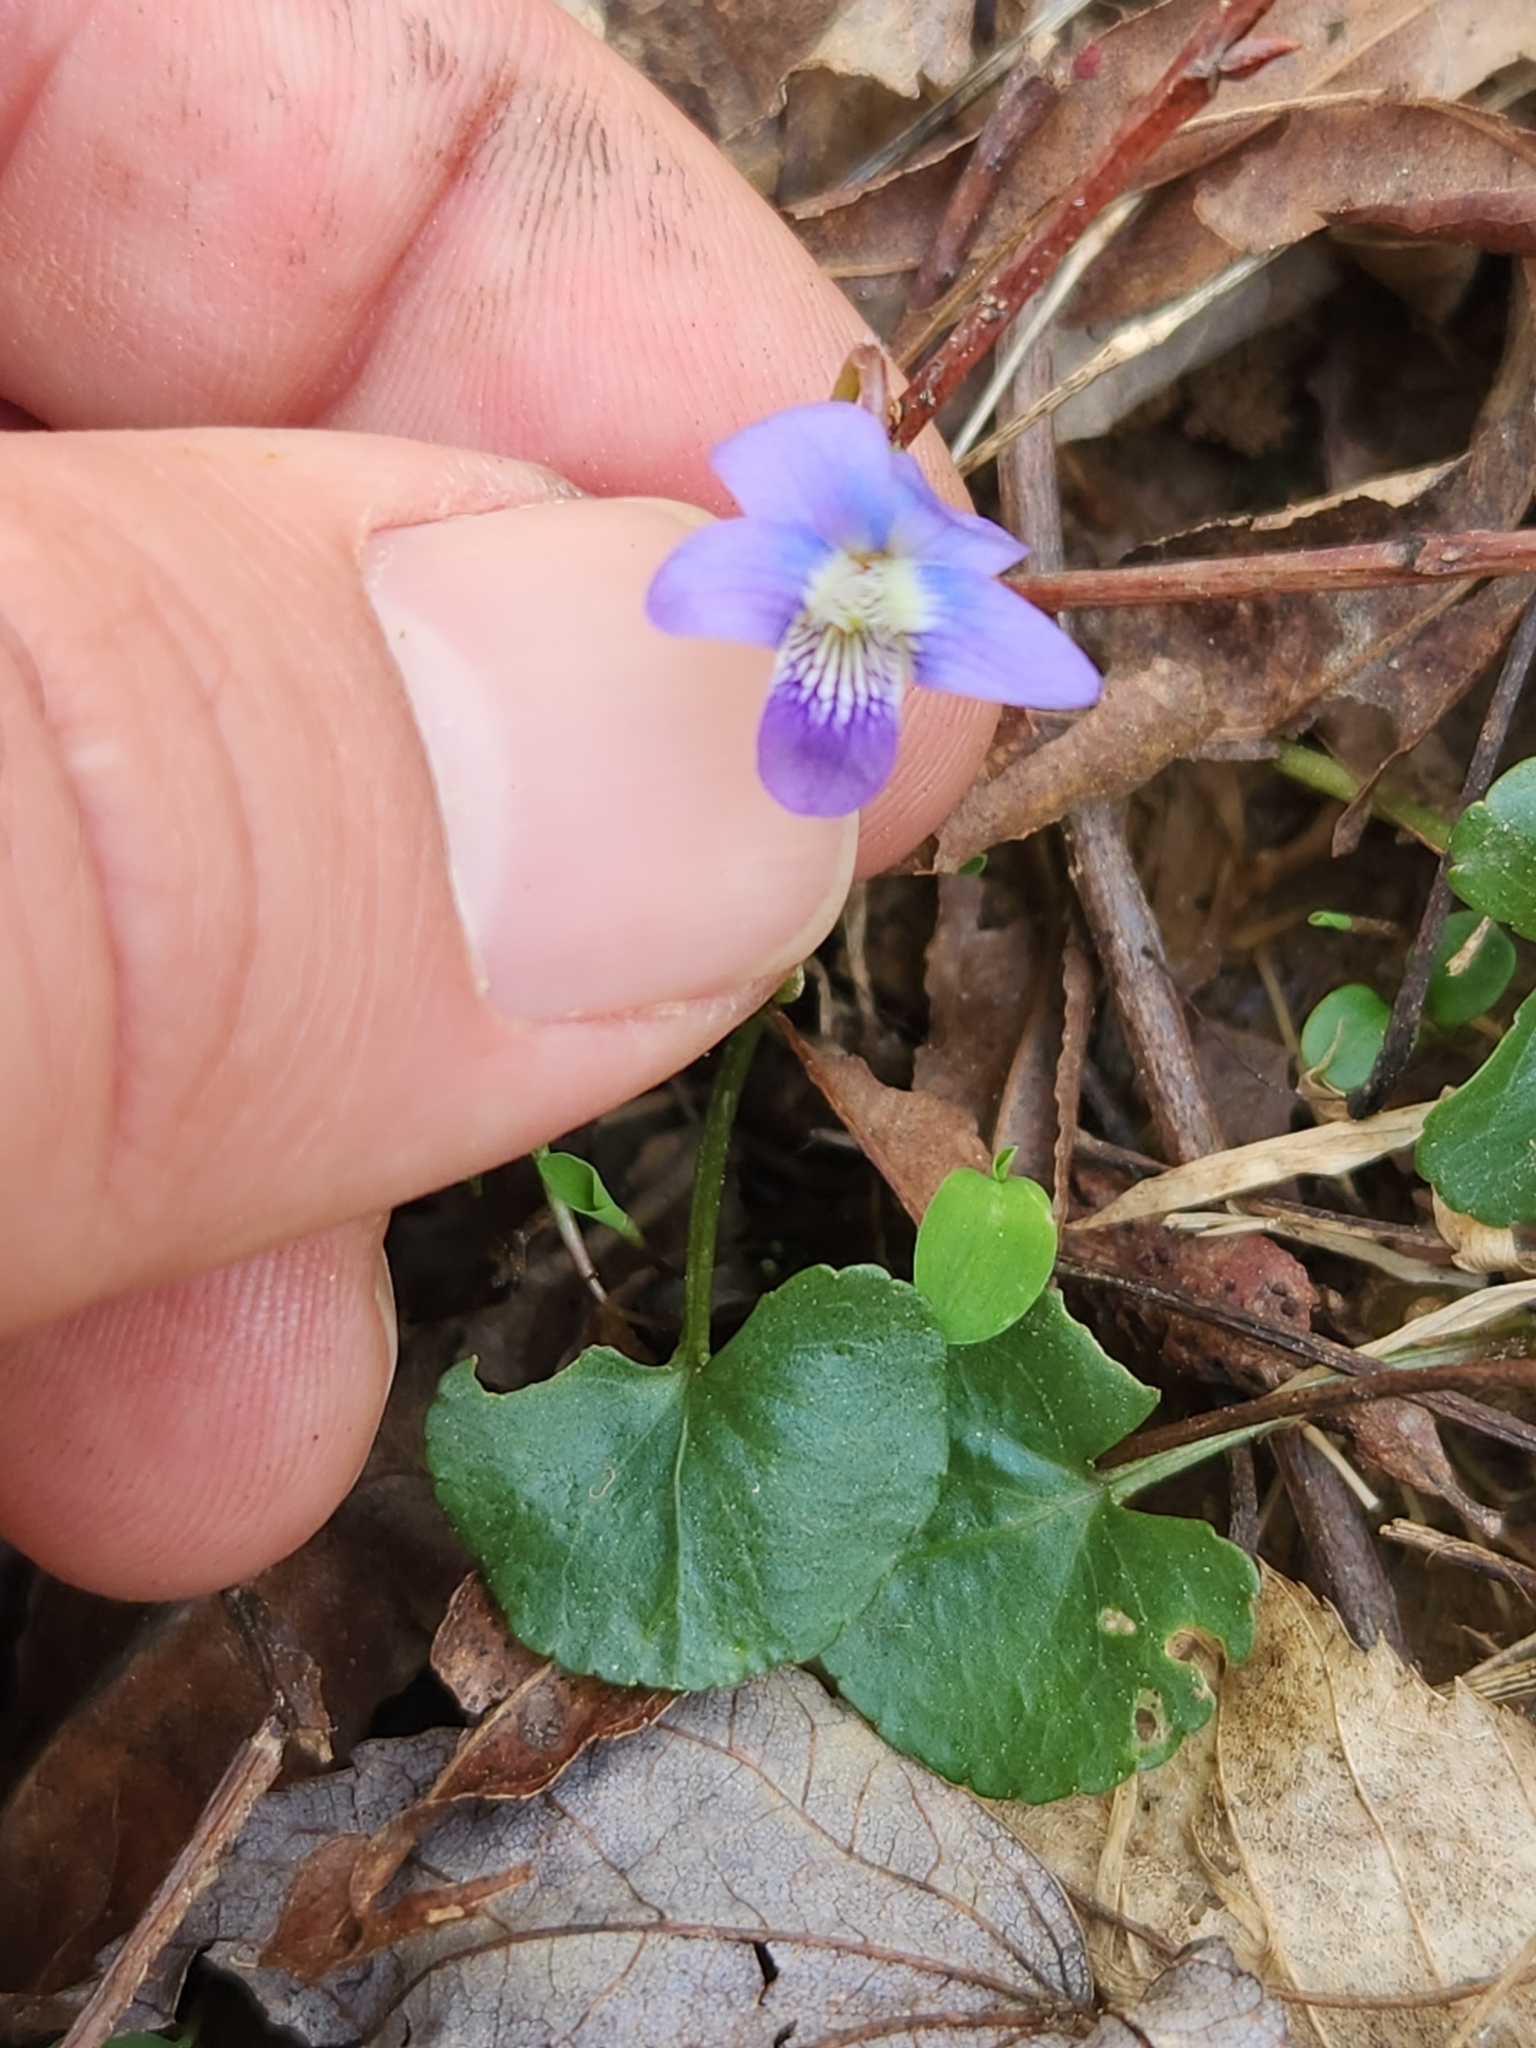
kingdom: Plantae
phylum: Tracheophyta
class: Magnoliopsida
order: Malpighiales
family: Violaceae
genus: Viola
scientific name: Viola sororia
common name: Dooryard violet
